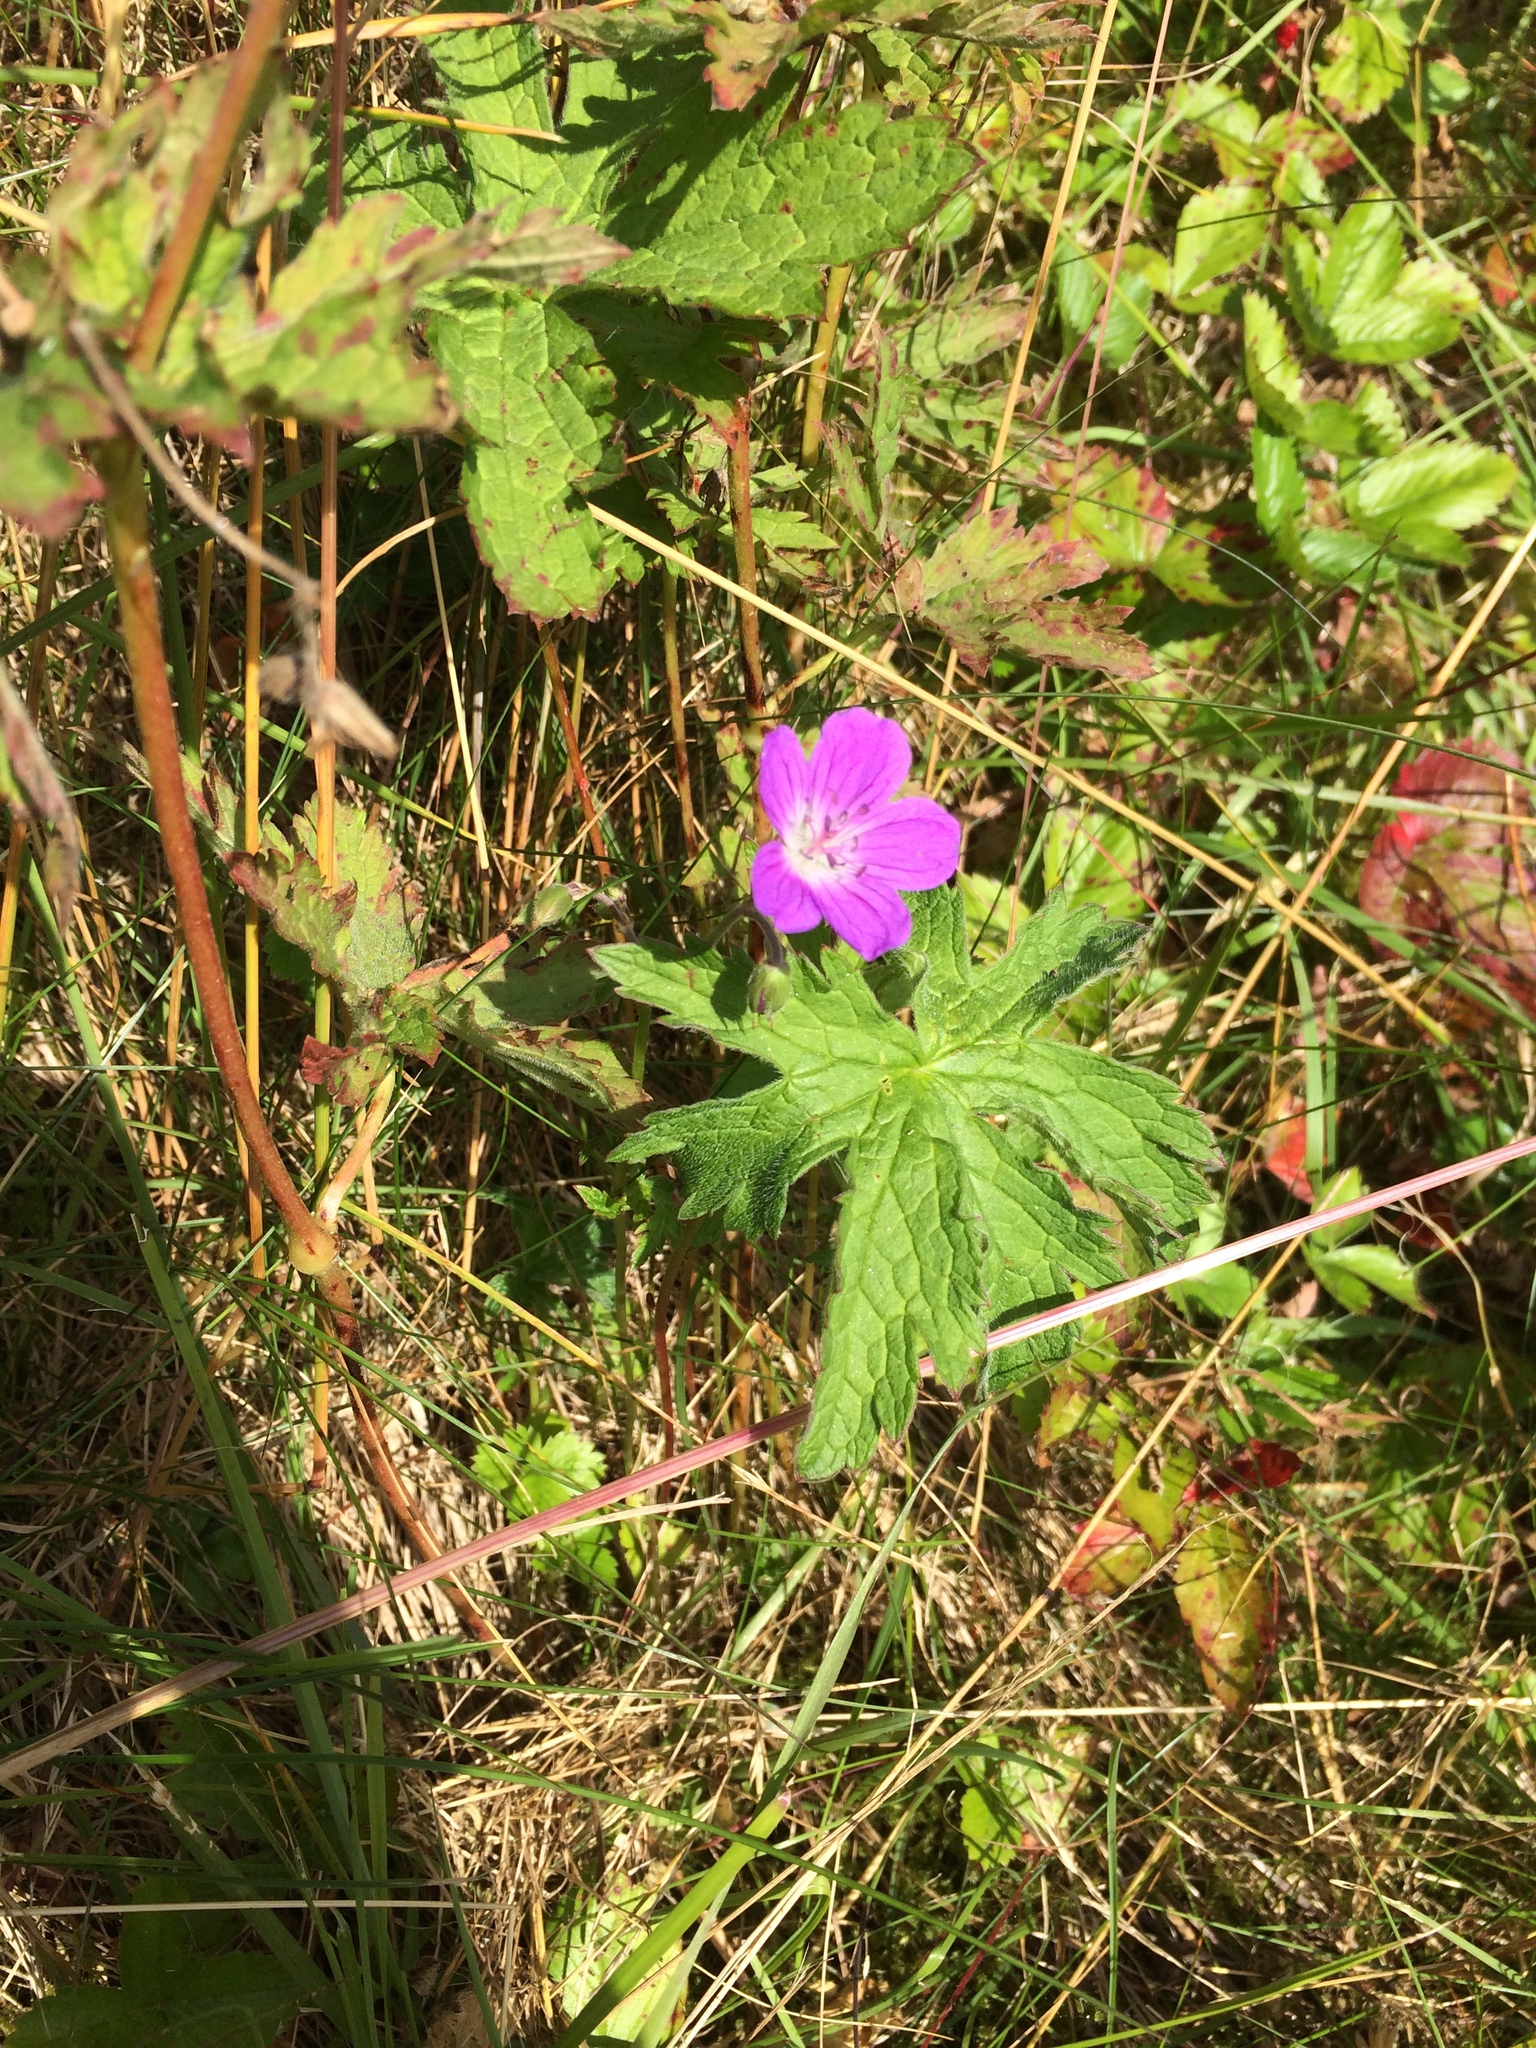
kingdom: Plantae
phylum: Tracheophyta
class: Magnoliopsida
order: Geraniales
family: Geraniaceae
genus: Geranium
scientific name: Geranium sylvaticum
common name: Wood crane's-bill
